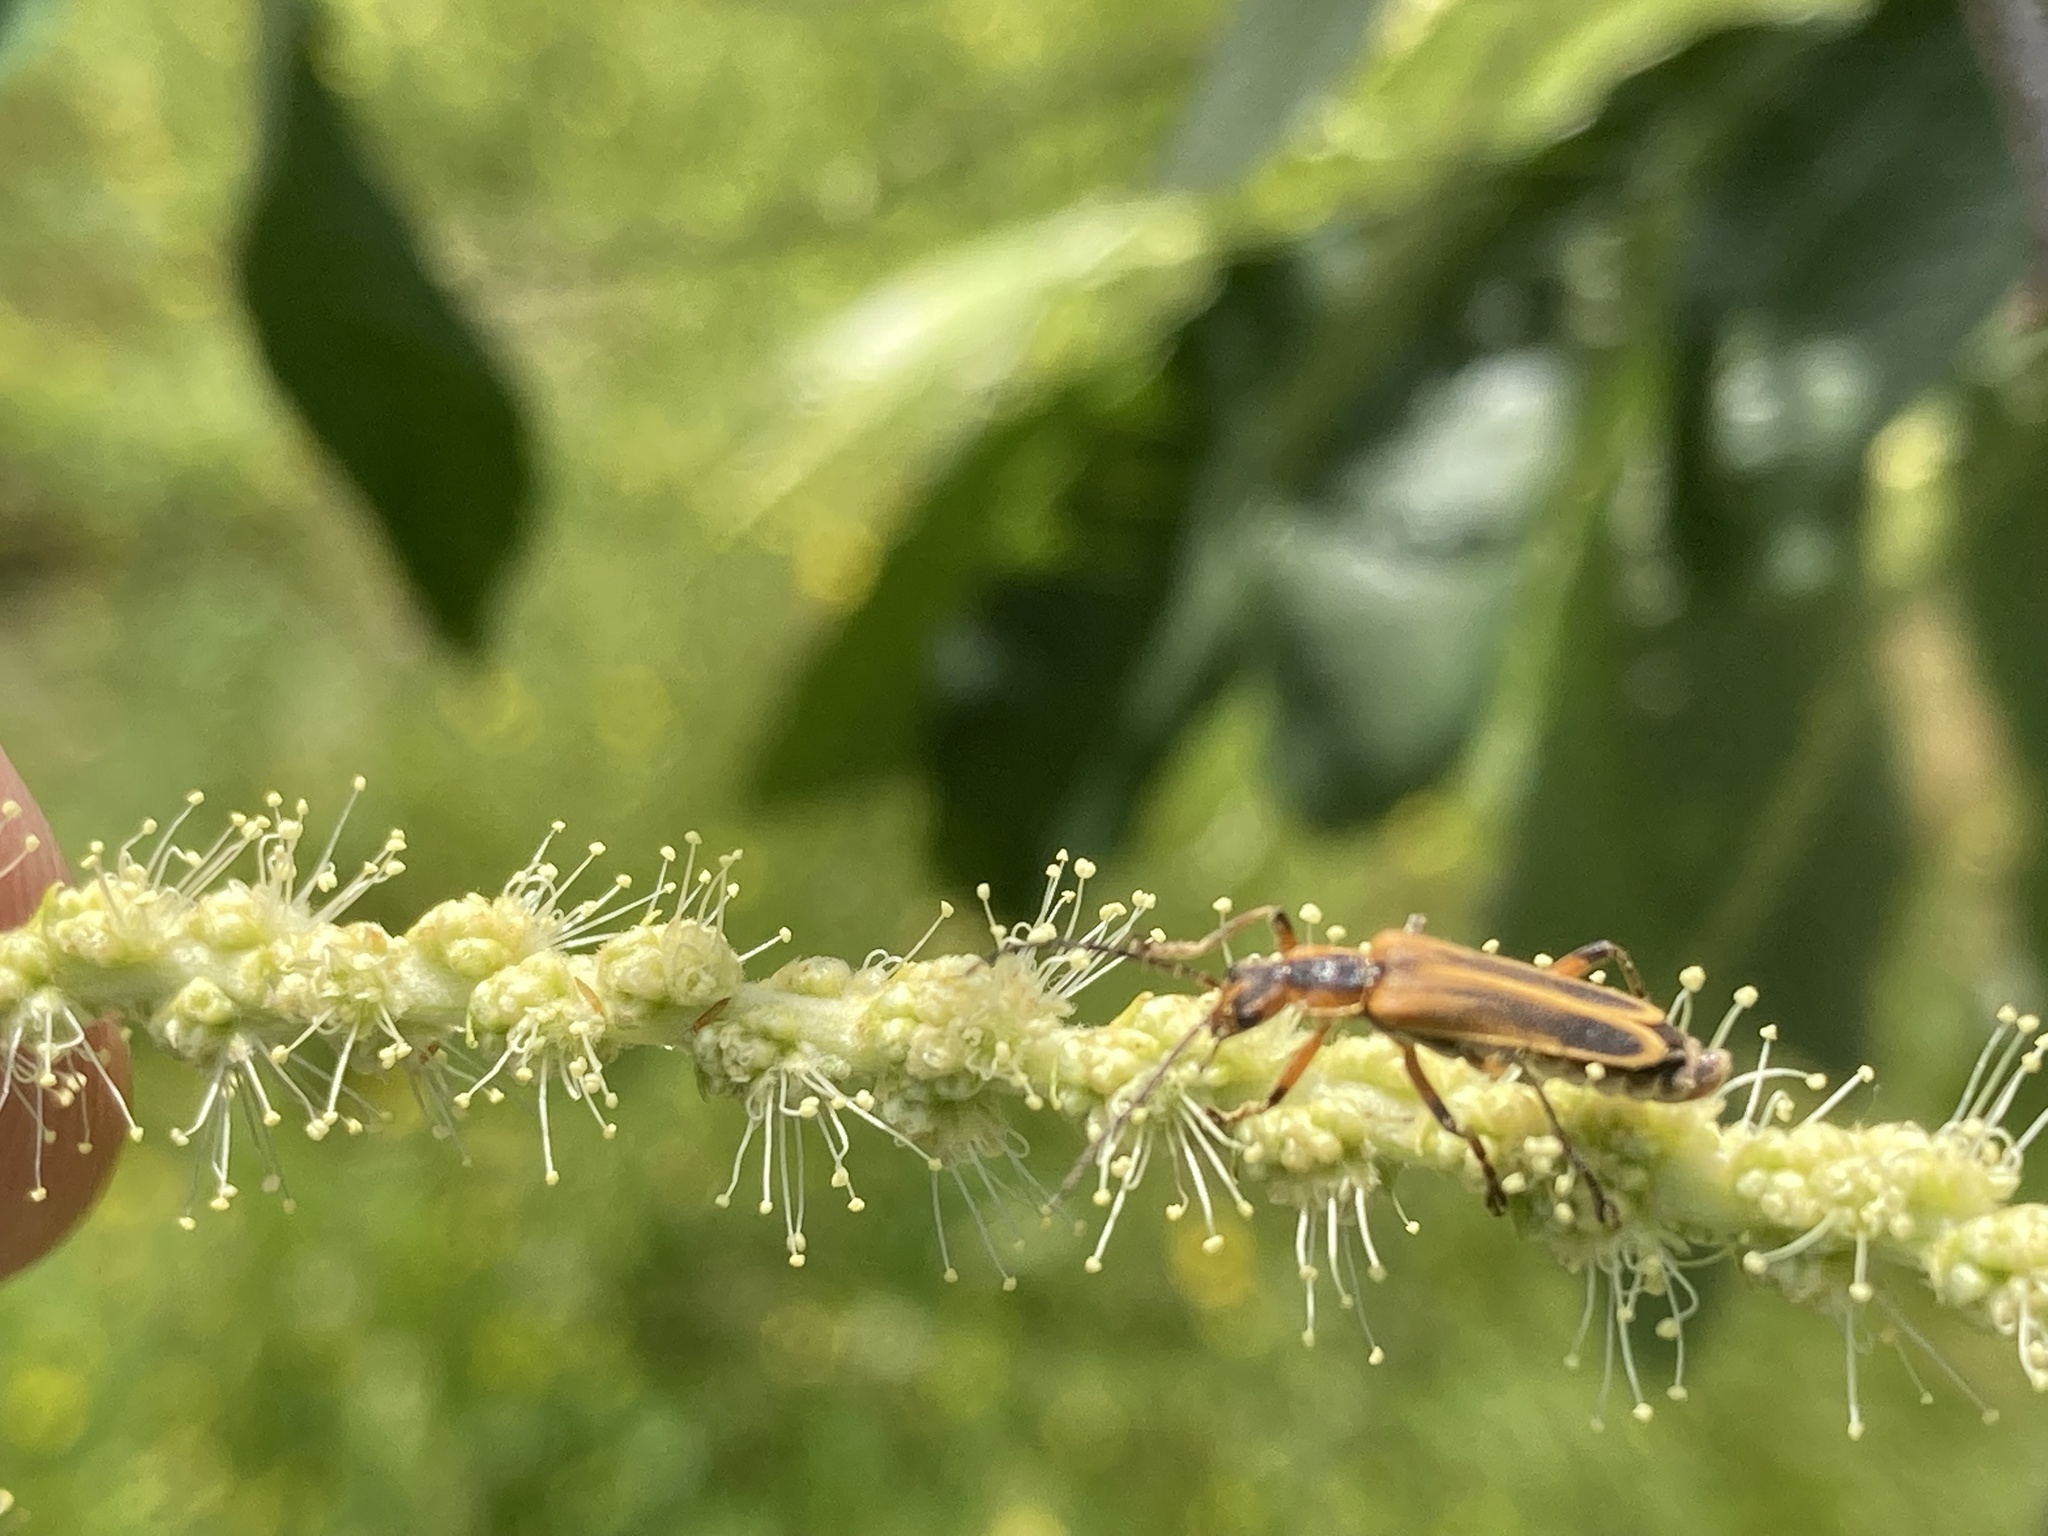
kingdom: Animalia
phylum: Arthropoda
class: Insecta
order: Coleoptera
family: Cantharidae
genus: Chauliognathus
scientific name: Chauliognathus marginatus
